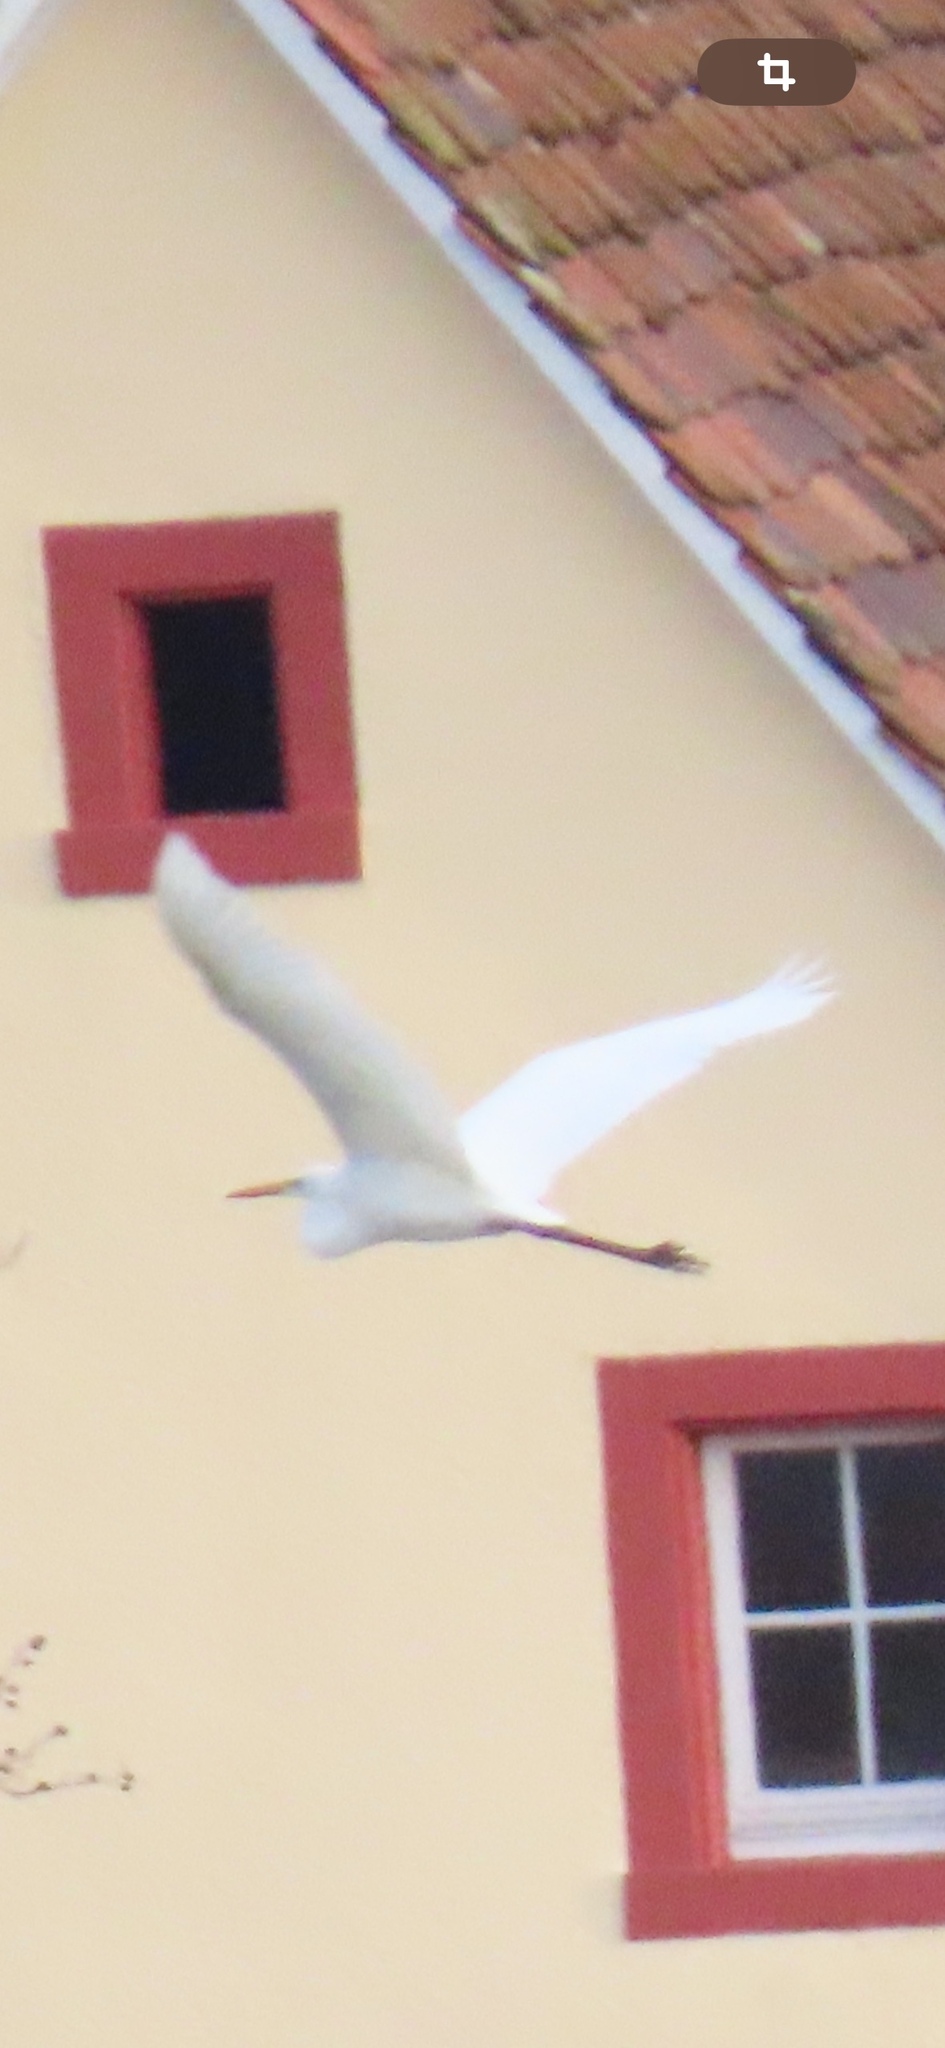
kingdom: Animalia
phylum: Chordata
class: Aves
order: Pelecaniformes
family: Ardeidae
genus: Ardea
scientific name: Ardea alba
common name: Great egret
